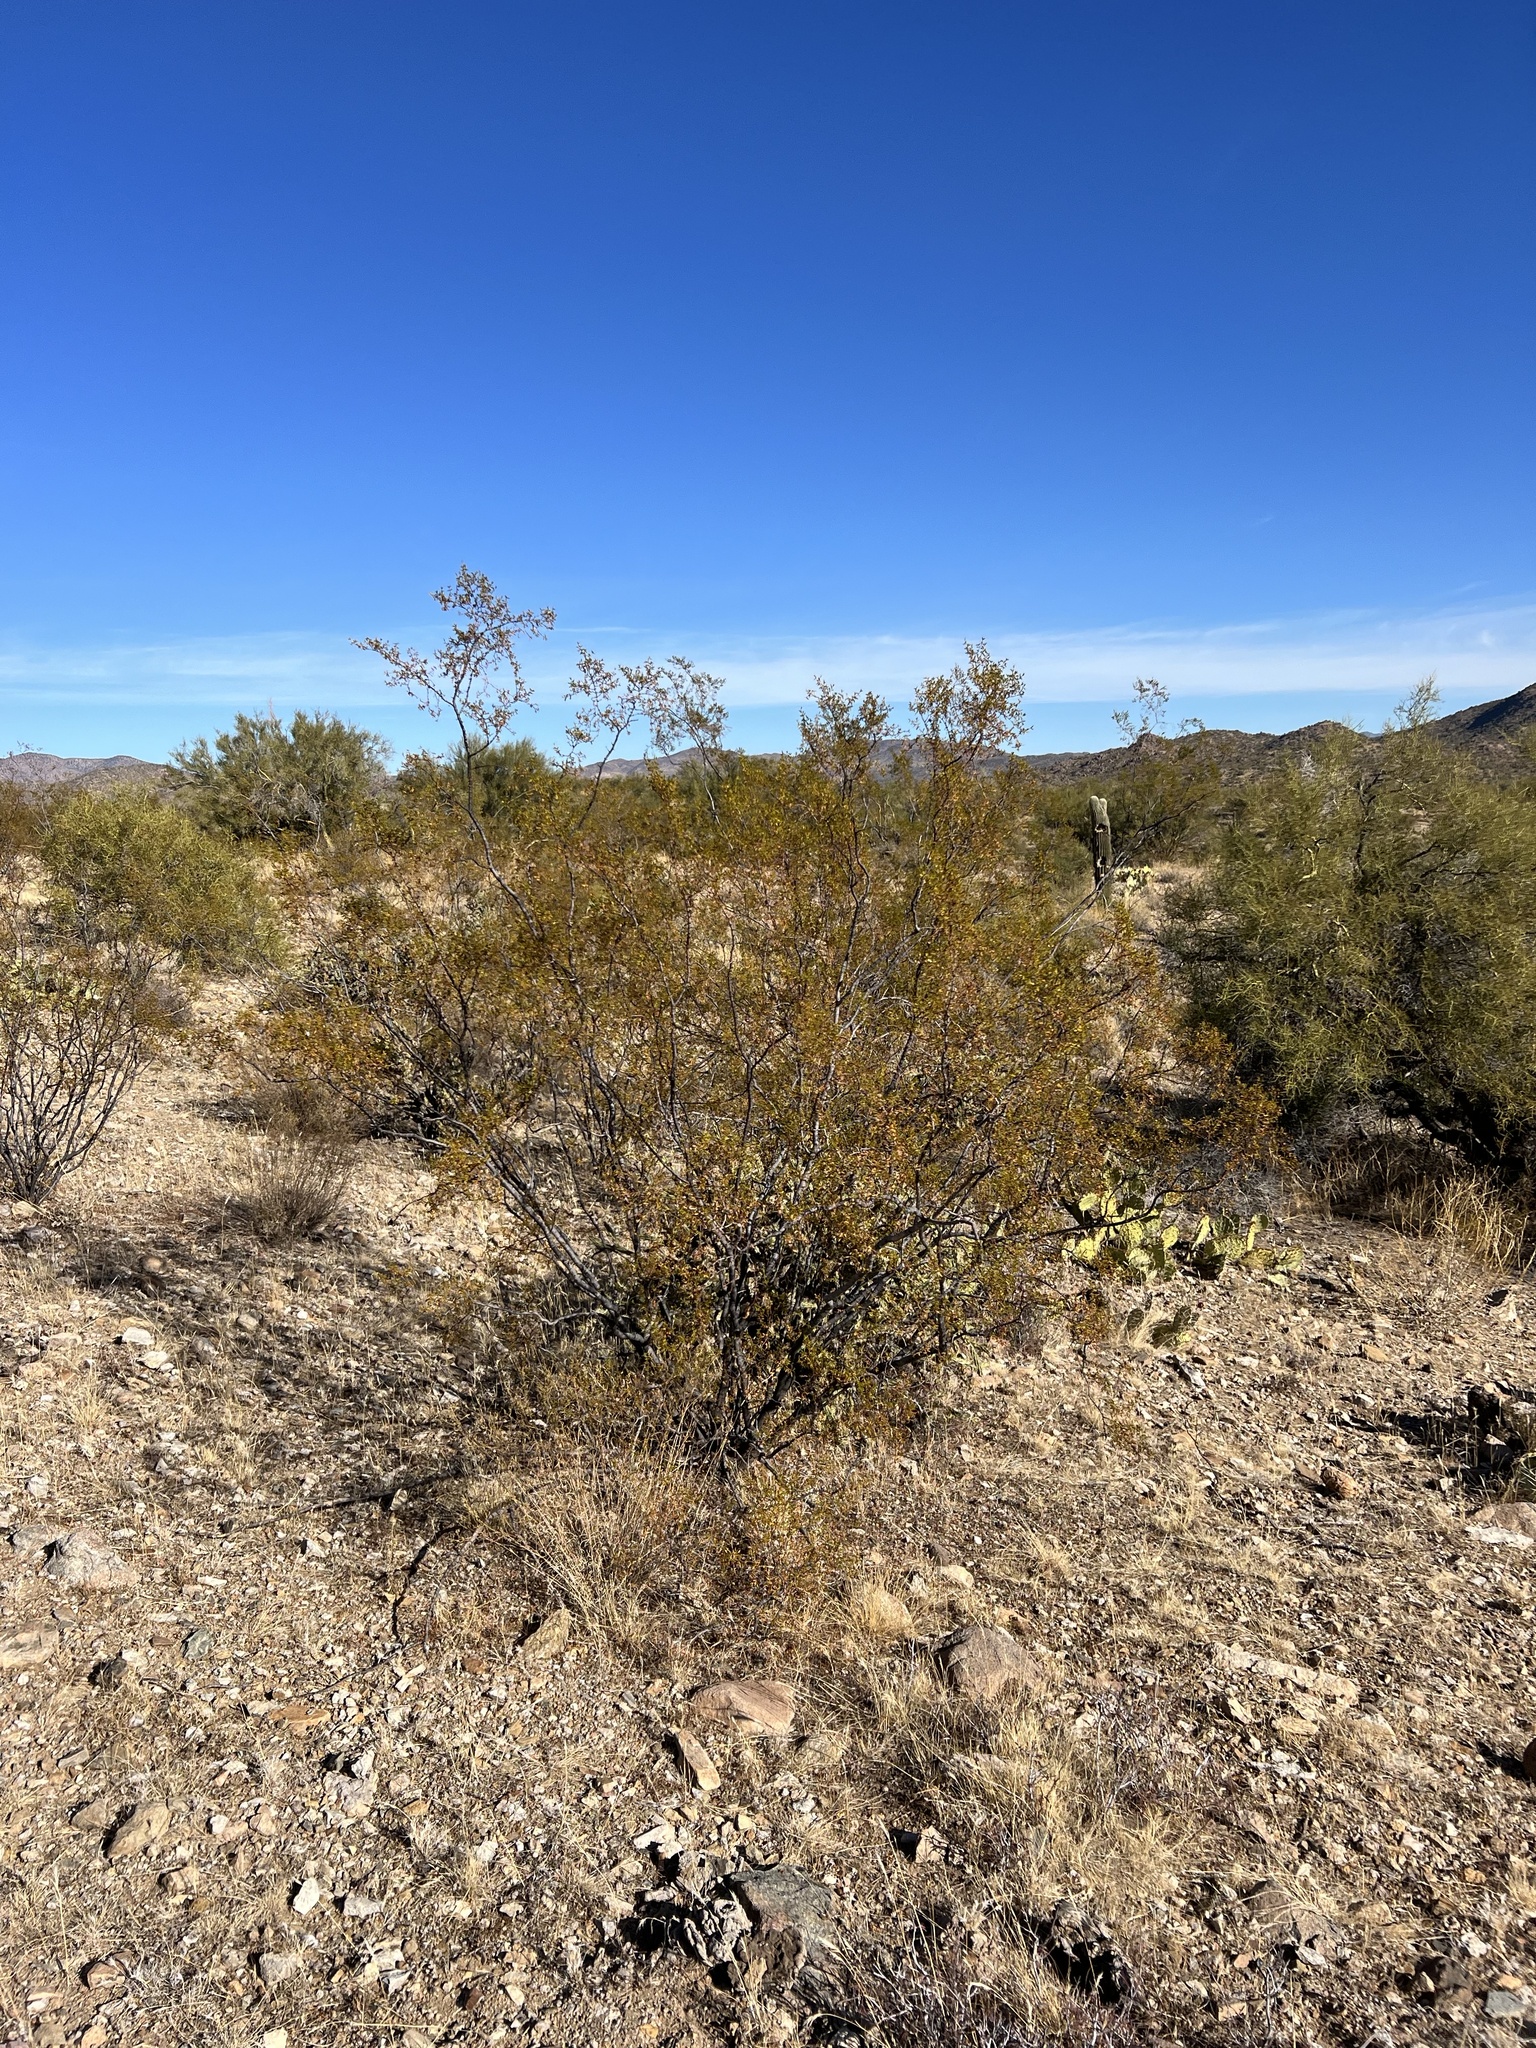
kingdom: Plantae
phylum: Tracheophyta
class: Magnoliopsida
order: Zygophyllales
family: Zygophyllaceae
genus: Larrea
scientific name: Larrea tridentata
